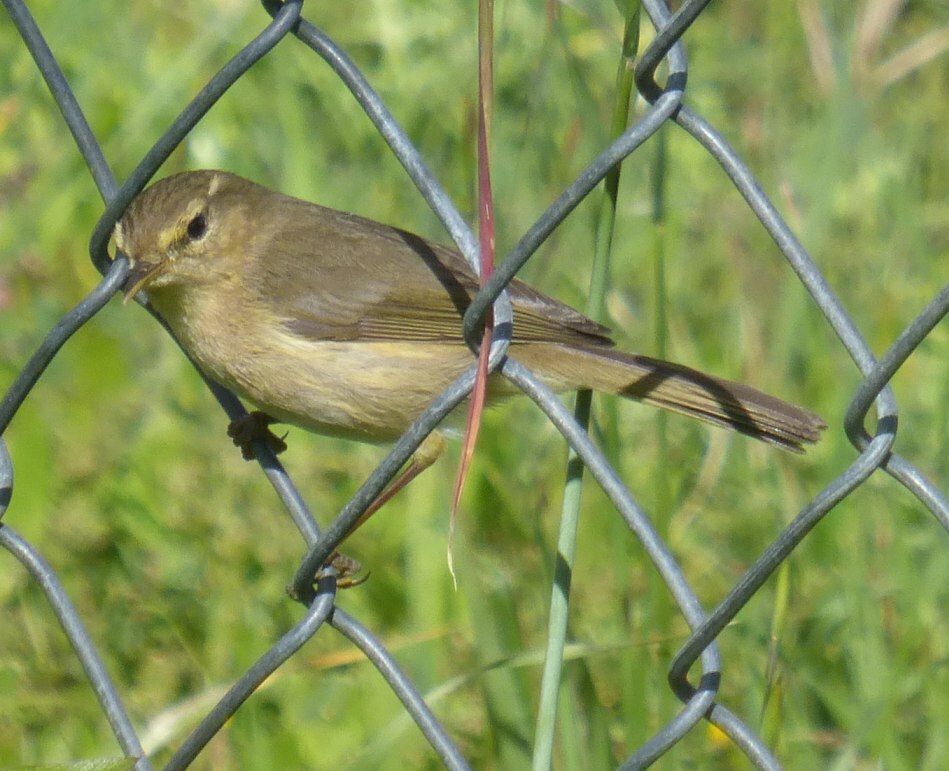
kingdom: Animalia
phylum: Chordata
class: Aves
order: Passeriformes
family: Phylloscopidae
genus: Phylloscopus
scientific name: Phylloscopus canariensis
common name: Canary islands chiffchaff
